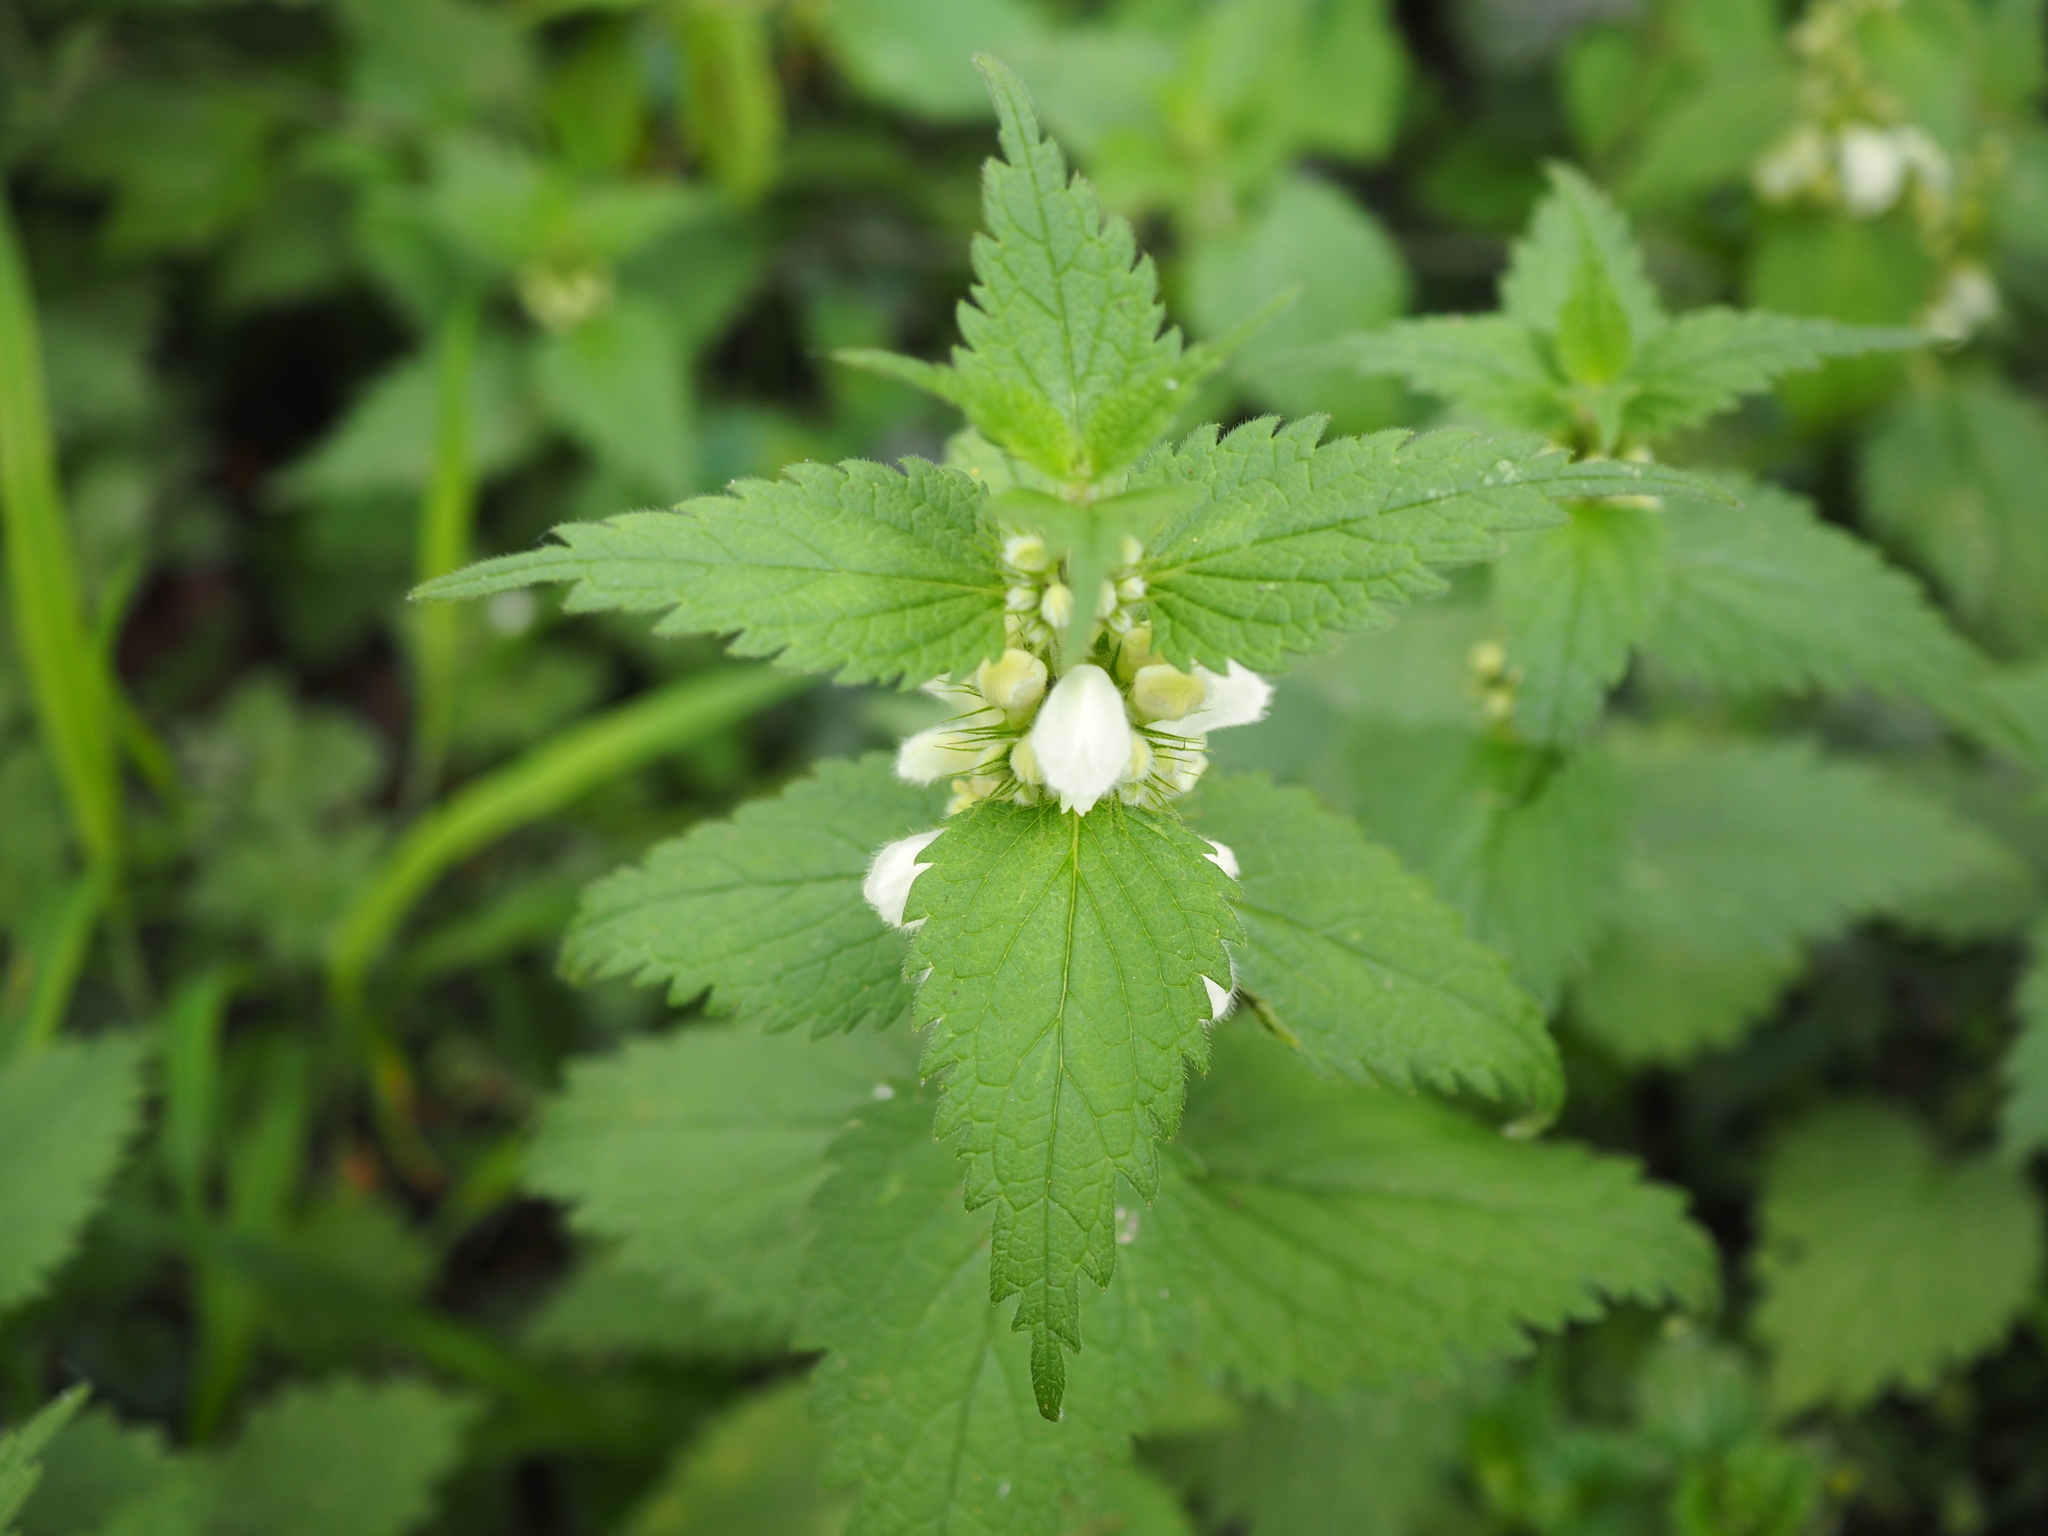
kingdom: Plantae
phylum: Tracheophyta
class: Magnoliopsida
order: Lamiales
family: Lamiaceae
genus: Lamium
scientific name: Lamium album
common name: White dead-nettle
